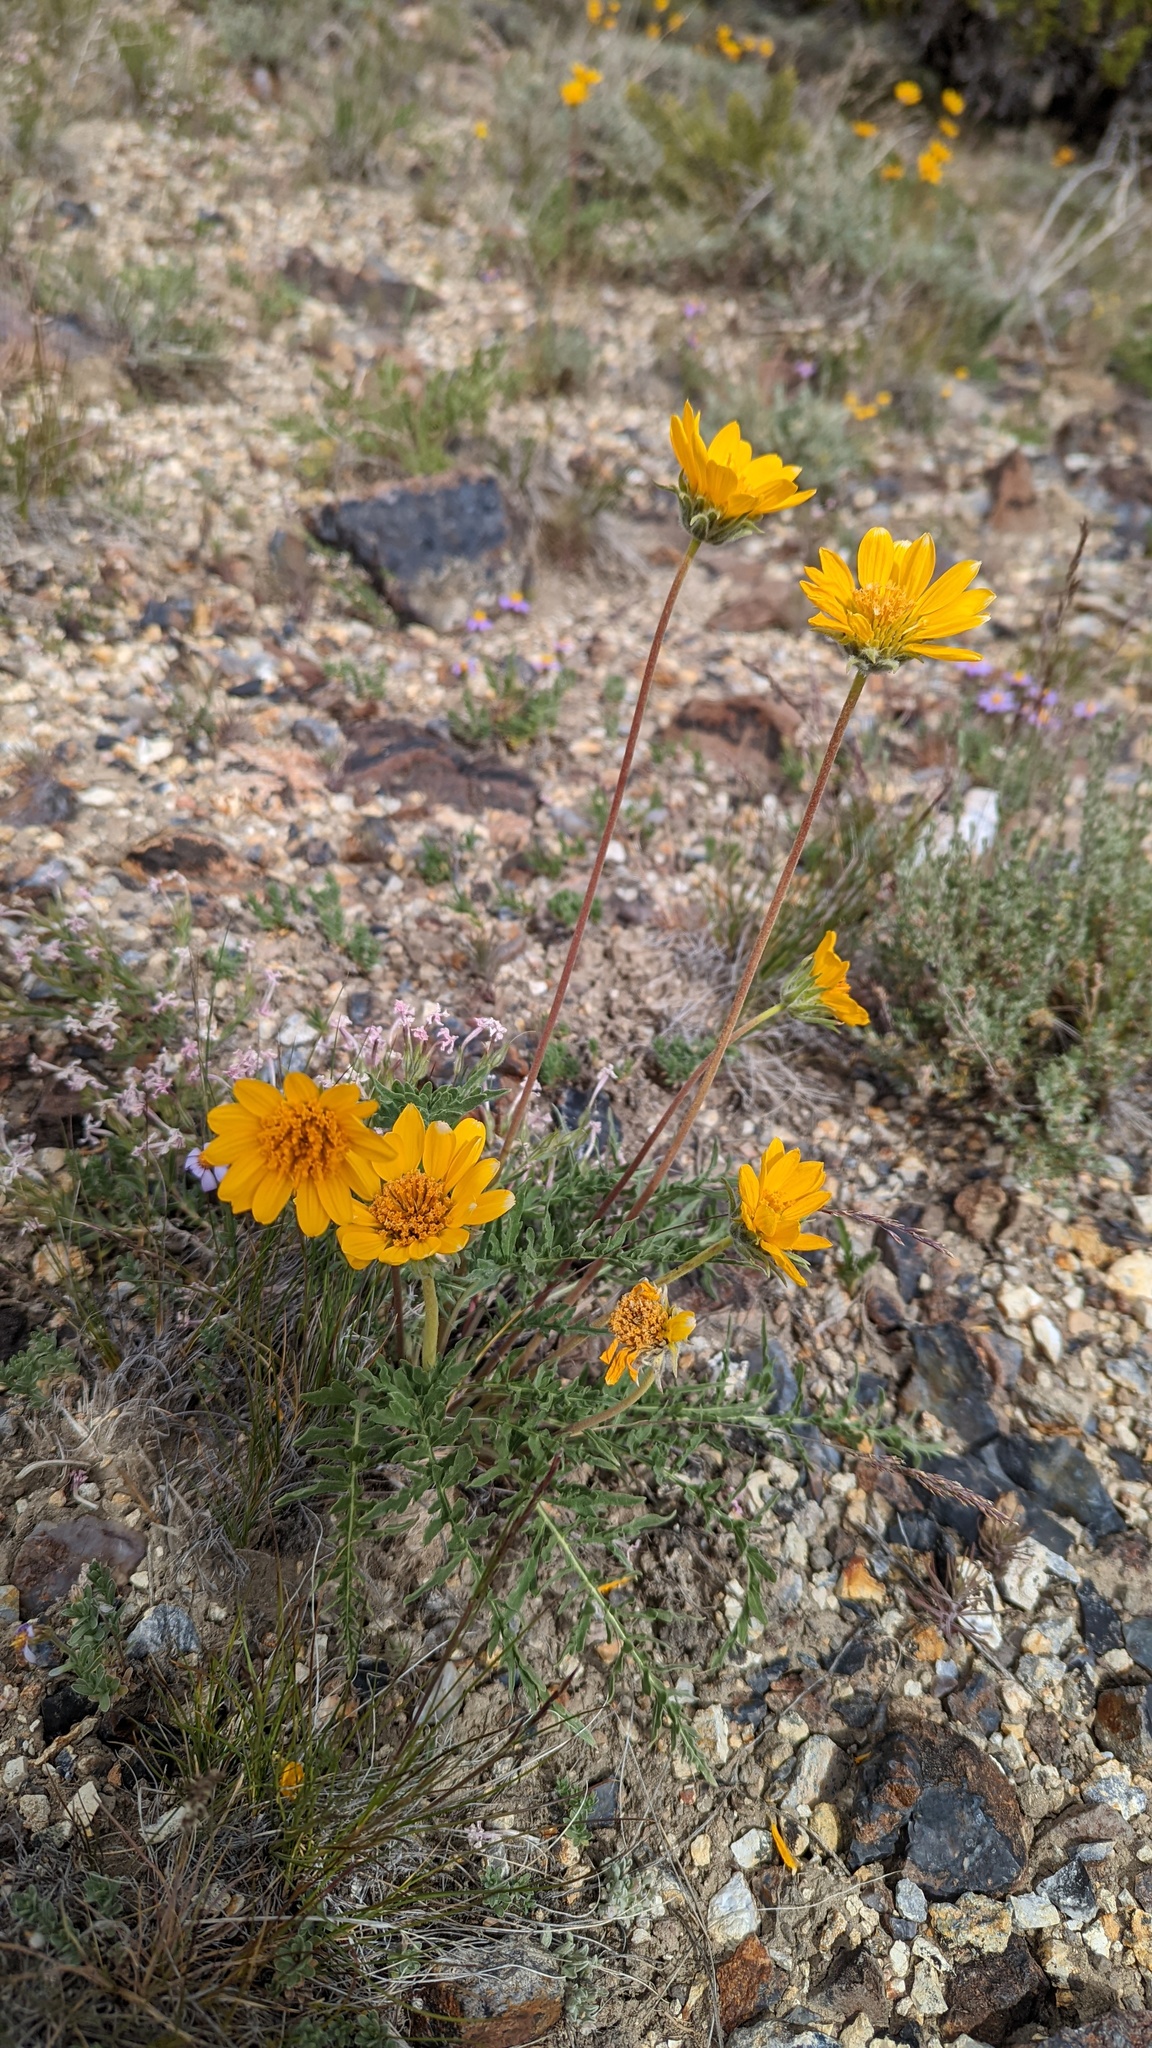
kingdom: Plantae
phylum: Tracheophyta
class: Magnoliopsida
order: Asterales
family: Asteraceae
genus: Balsamorhiza
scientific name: Balsamorhiza hookeri
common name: Hooker's balsamroot
